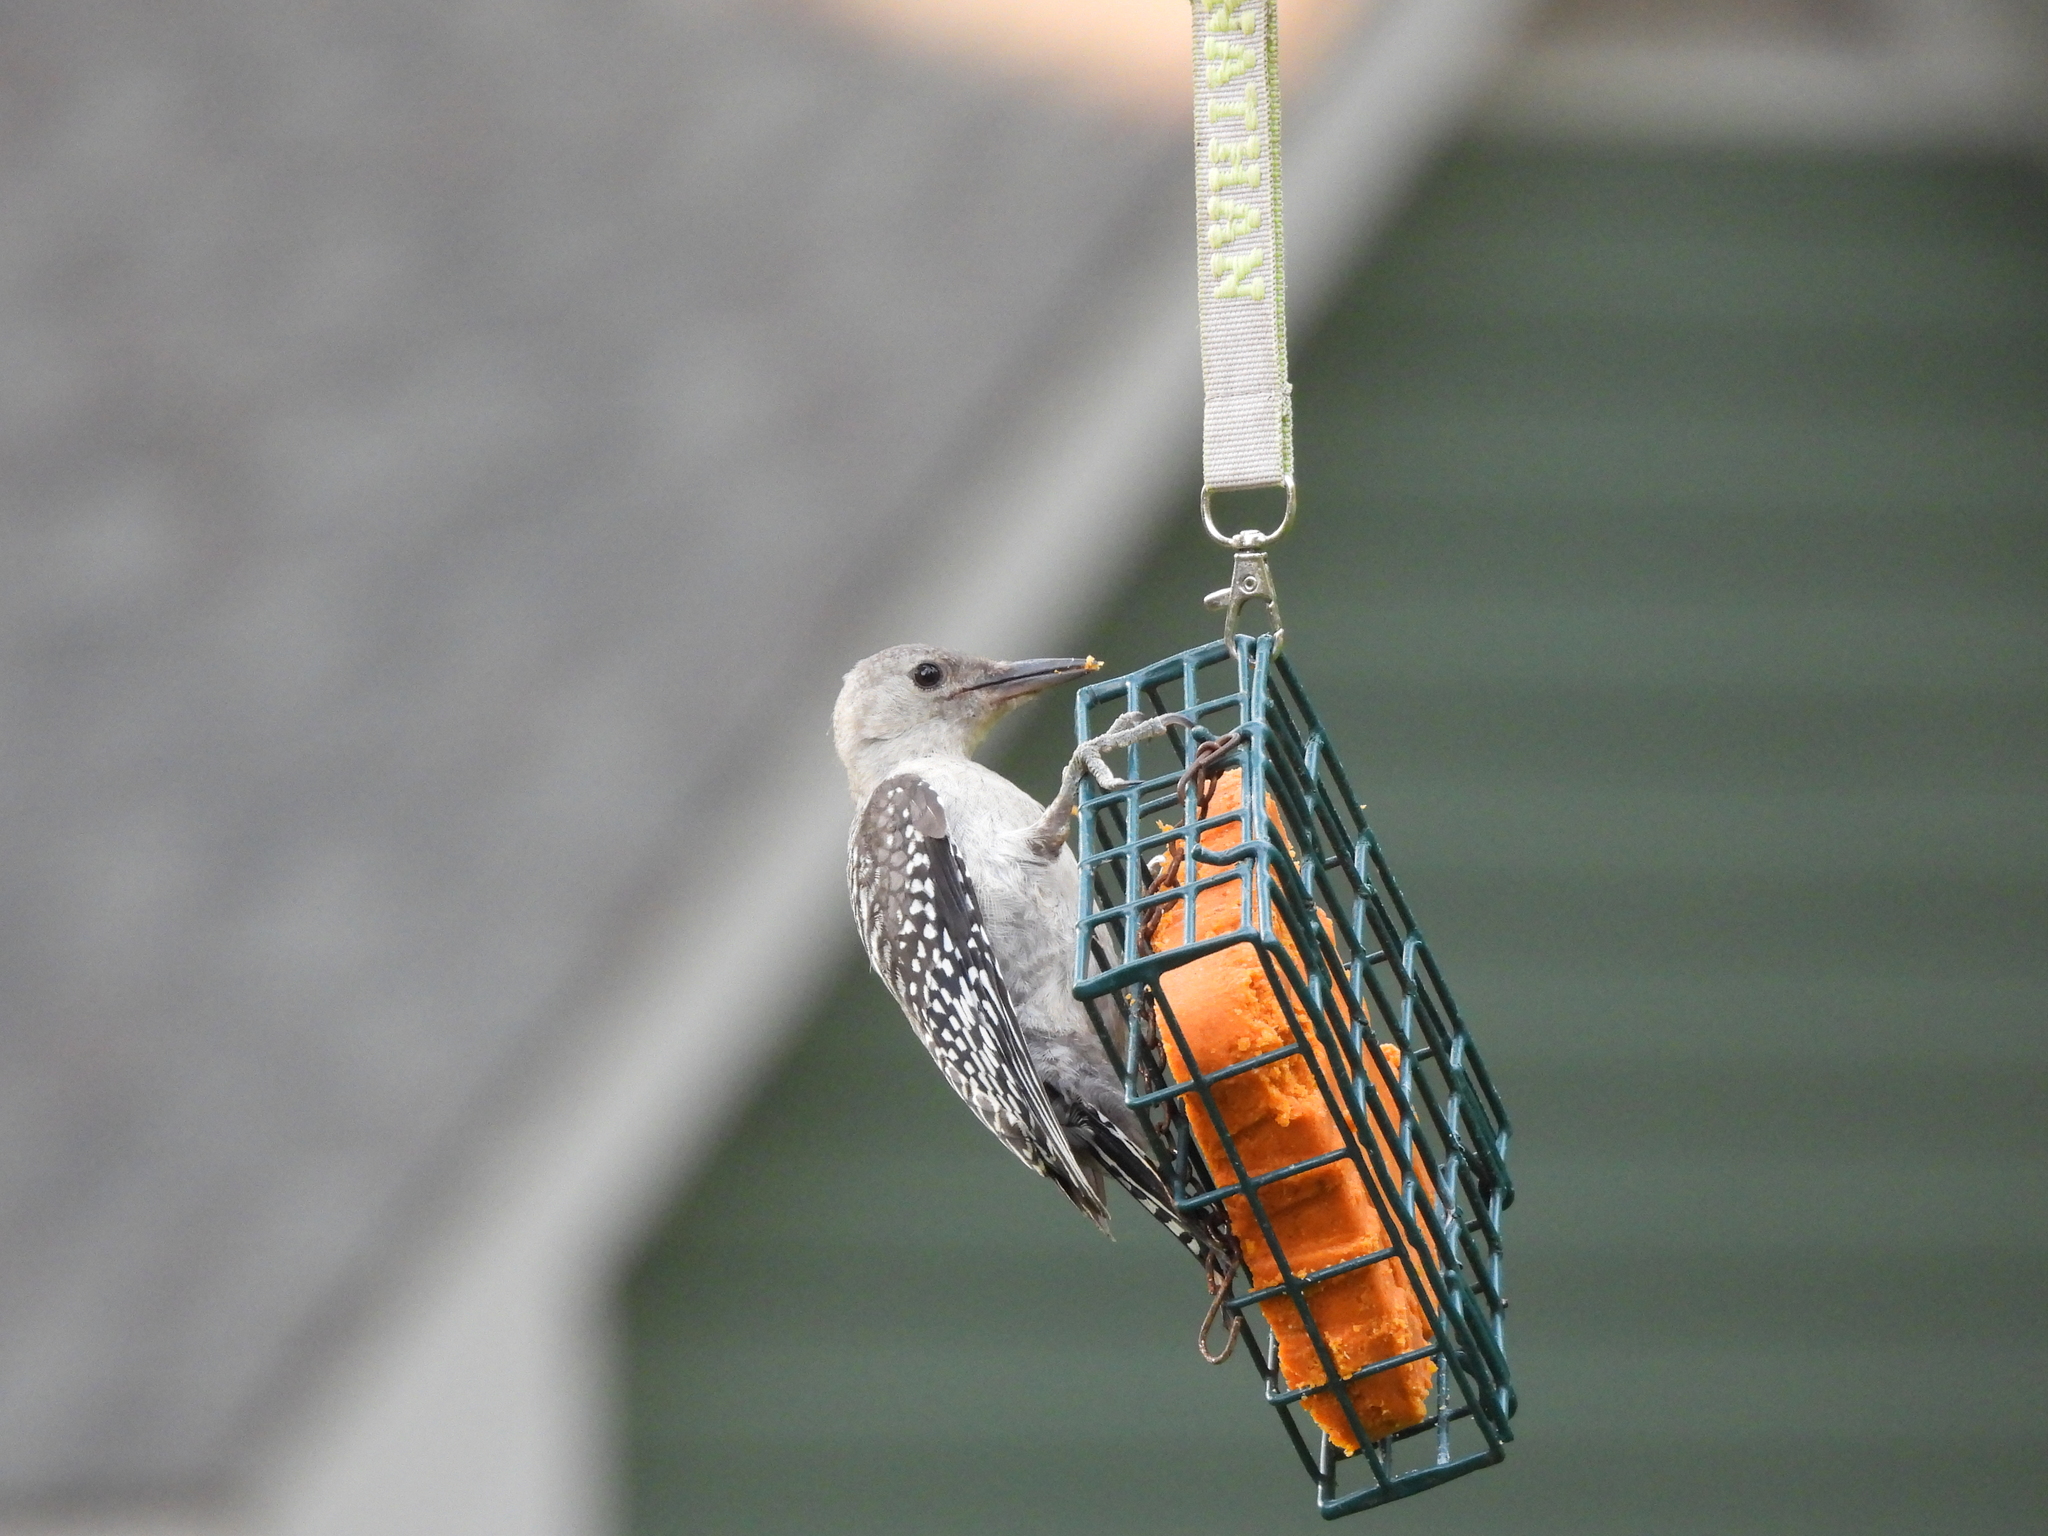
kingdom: Animalia
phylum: Chordata
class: Aves
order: Piciformes
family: Picidae
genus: Melanerpes
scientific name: Melanerpes carolinus
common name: Red-bellied woodpecker
